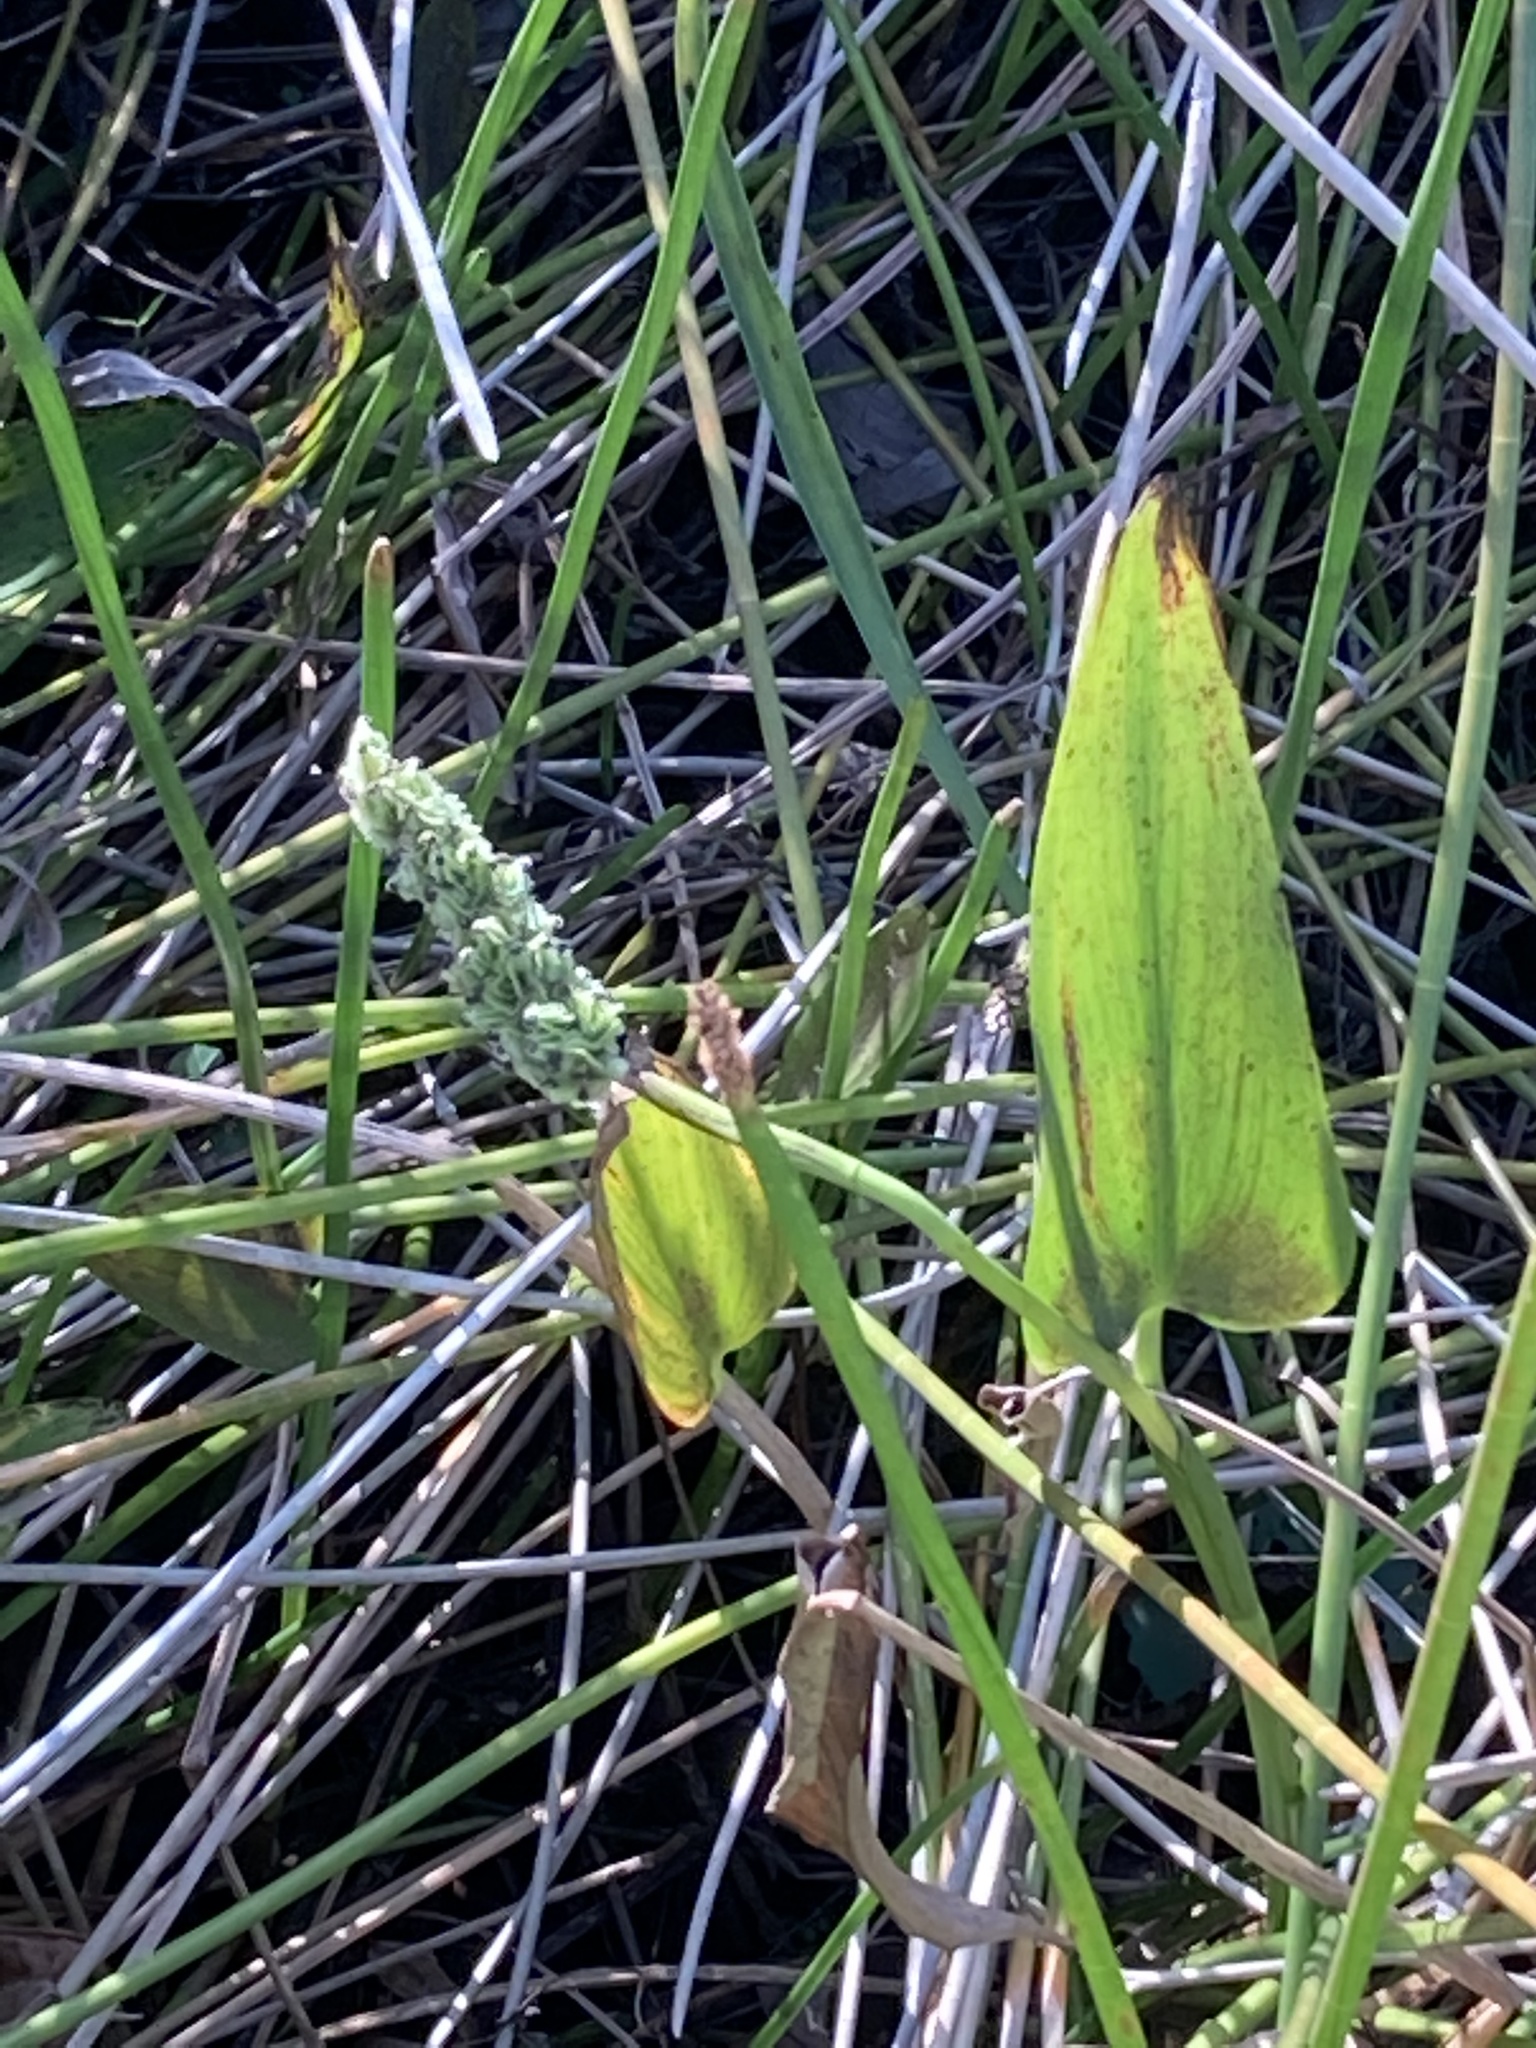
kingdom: Plantae
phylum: Tracheophyta
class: Liliopsida
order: Commelinales
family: Pontederiaceae
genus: Pontederia
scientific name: Pontederia cordata
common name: Pickerelweed
